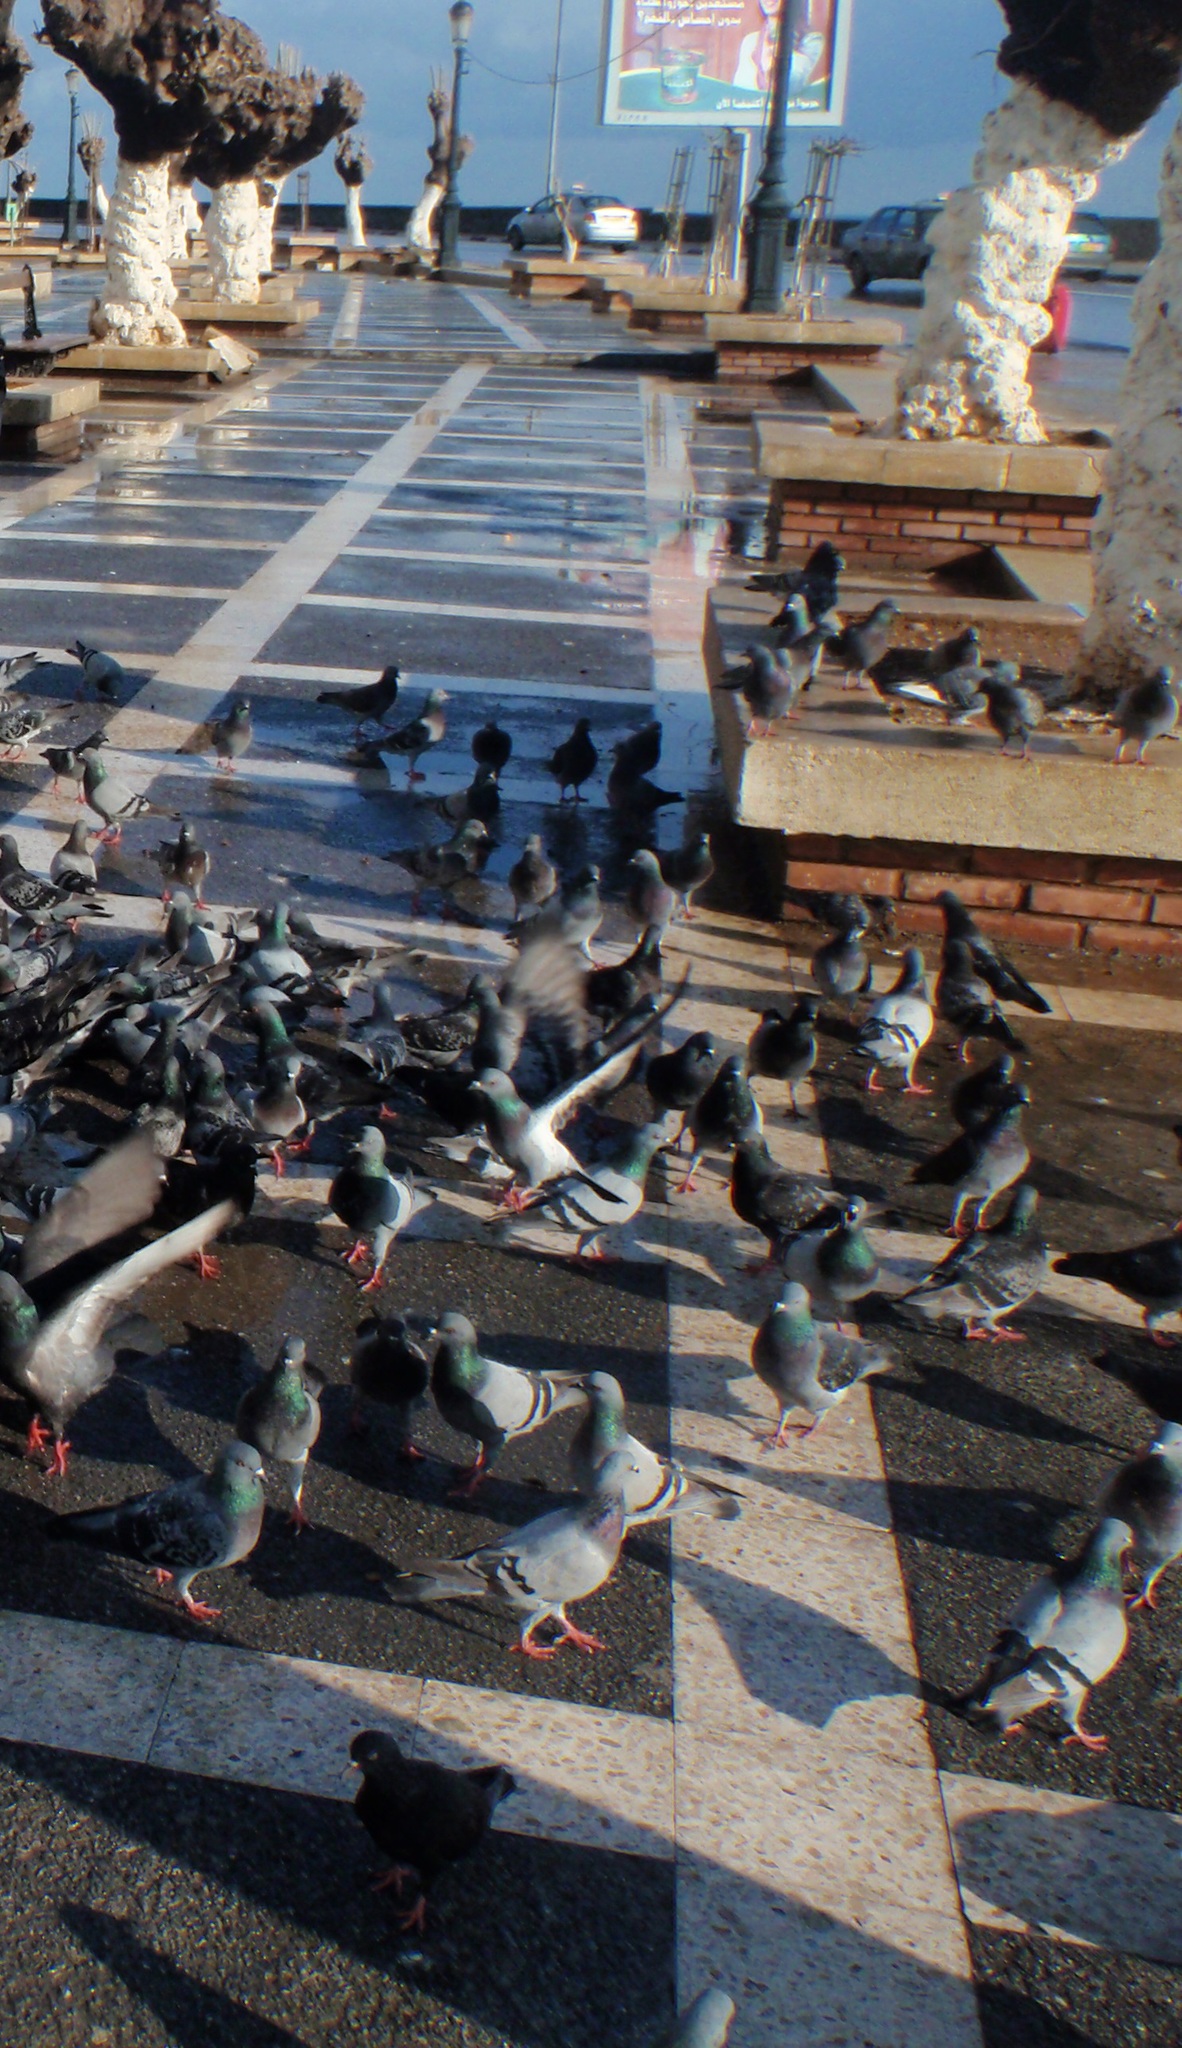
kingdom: Animalia
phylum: Chordata
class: Aves
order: Columbiformes
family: Columbidae
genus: Columba
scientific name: Columba livia
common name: Rock pigeon
